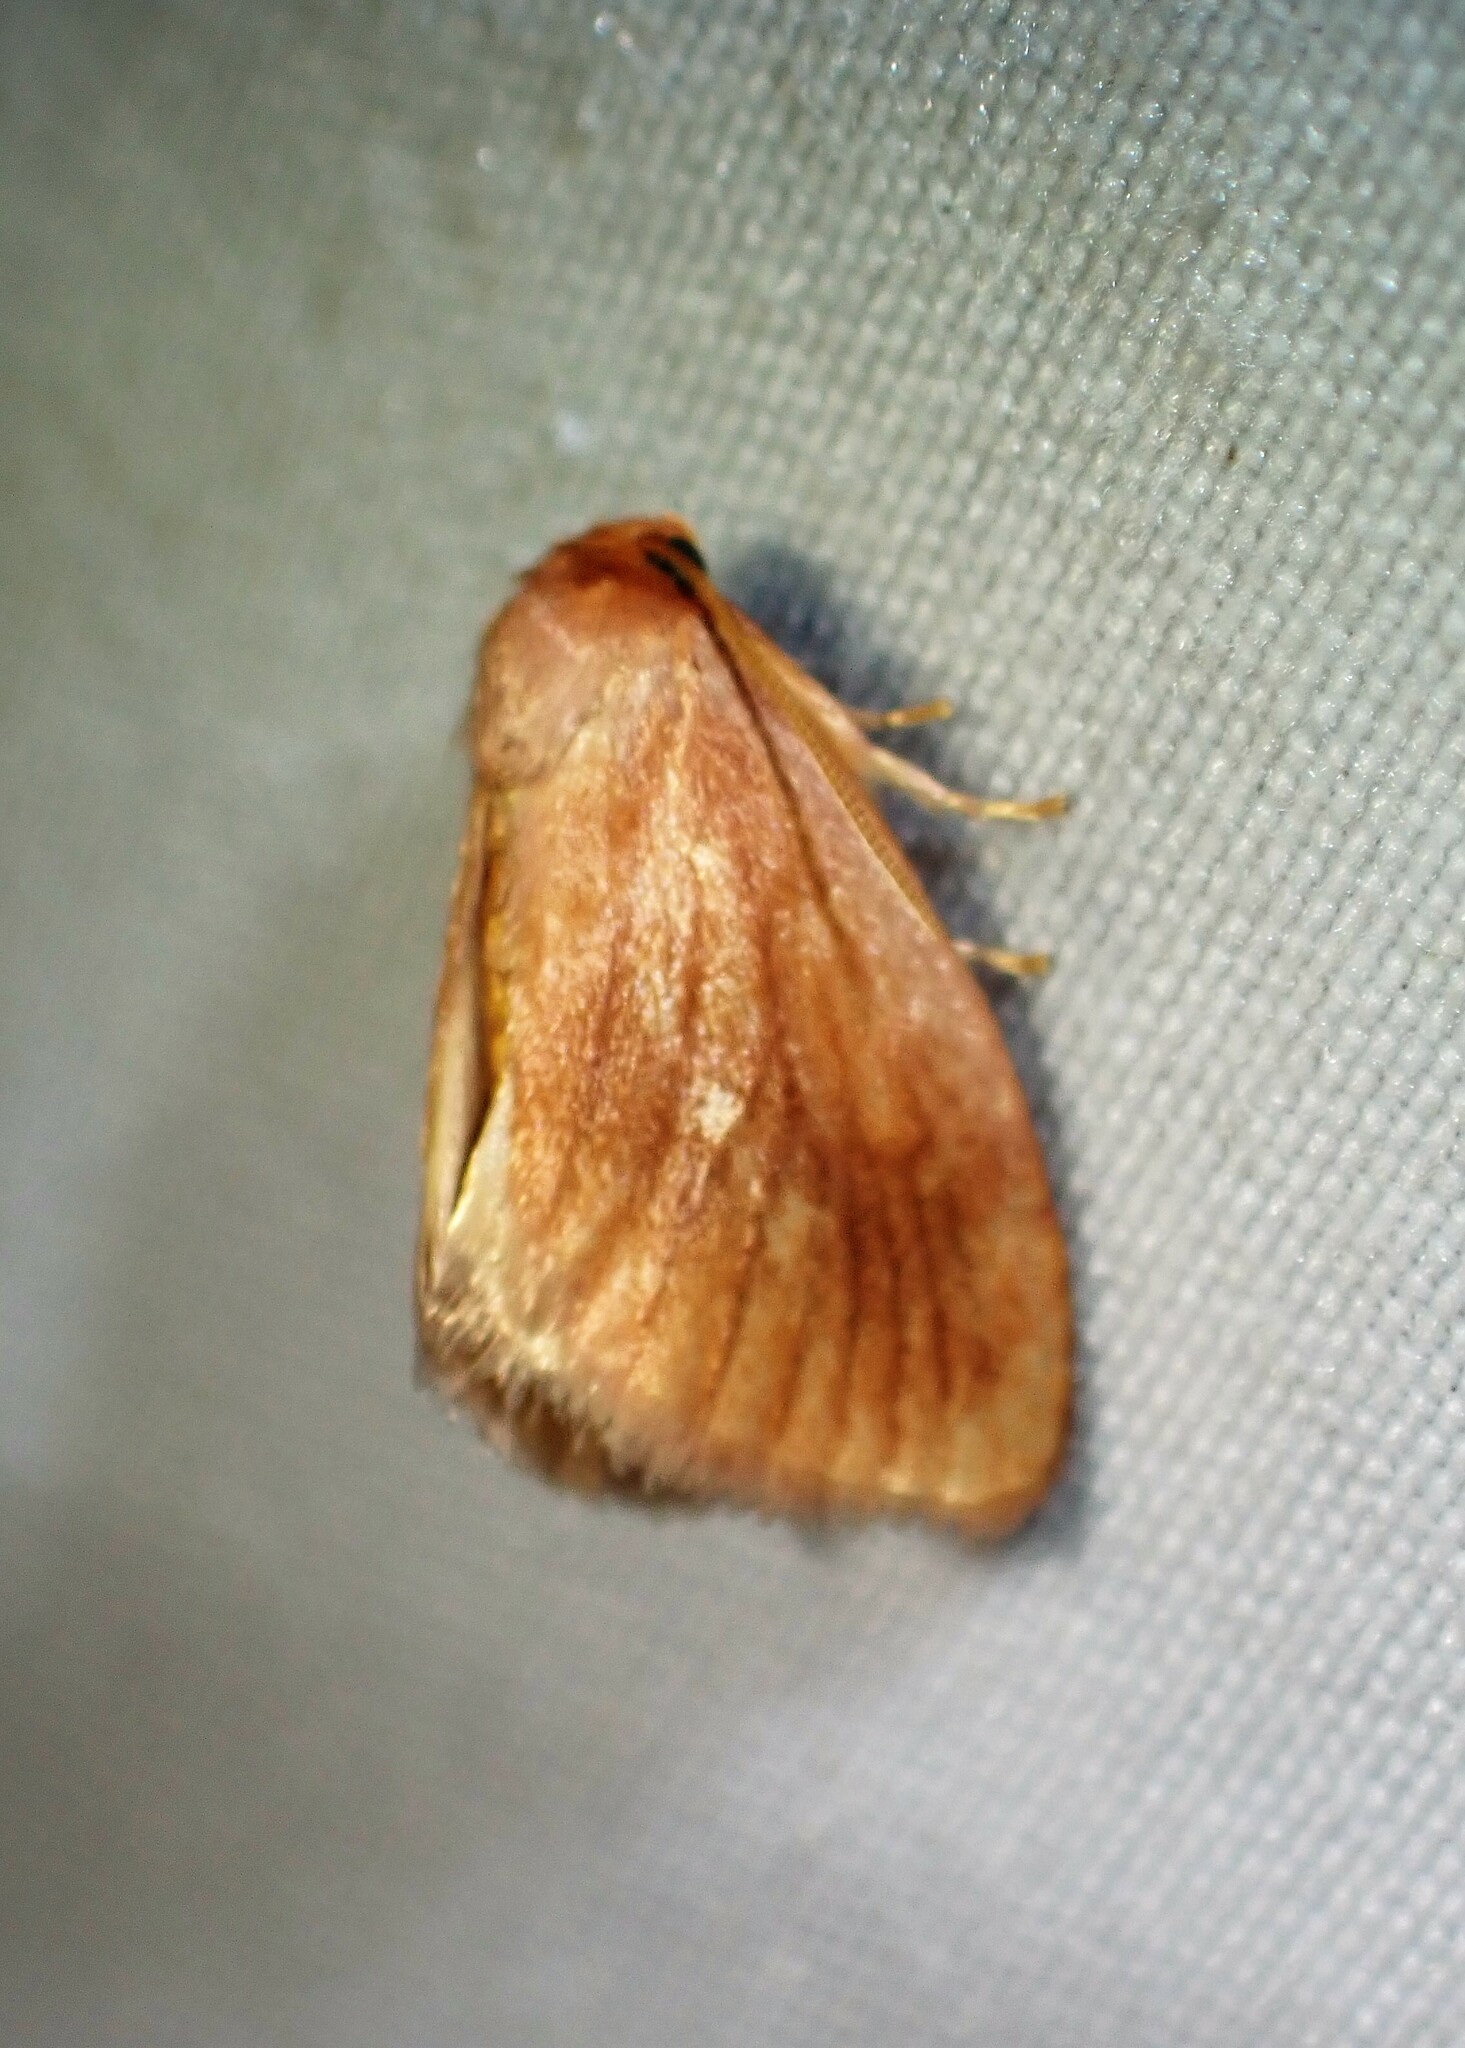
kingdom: Animalia
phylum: Arthropoda
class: Insecta
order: Lepidoptera
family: Limacodidae
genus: Tortricidia
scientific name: Tortricidia testacea
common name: Early button slug moth
